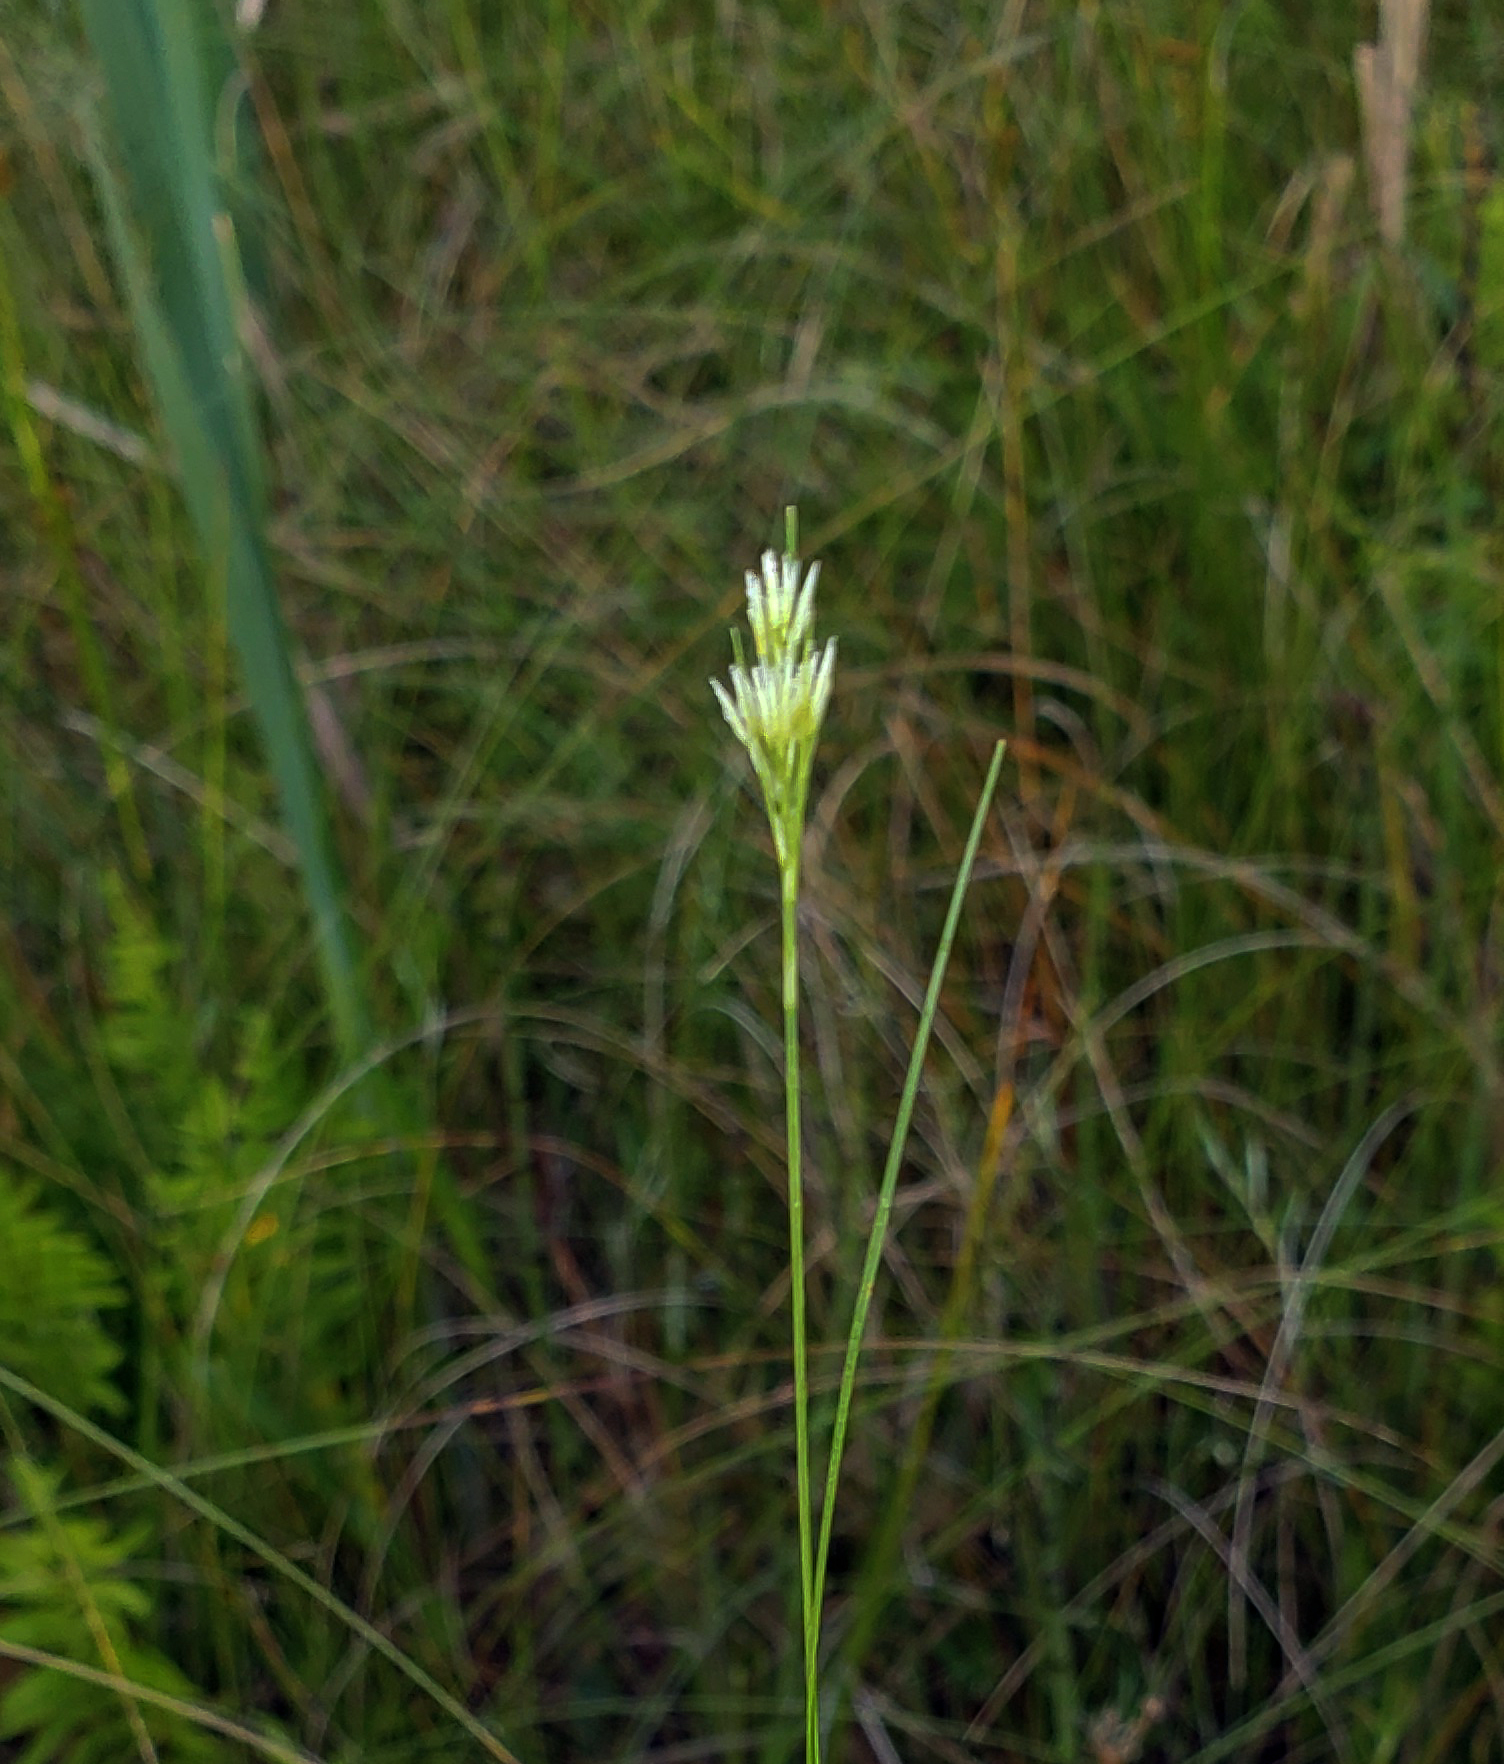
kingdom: Plantae
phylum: Tracheophyta
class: Liliopsida
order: Poales
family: Cyperaceae
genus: Rhynchospora
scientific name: Rhynchospora alba
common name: White beak-sedge
